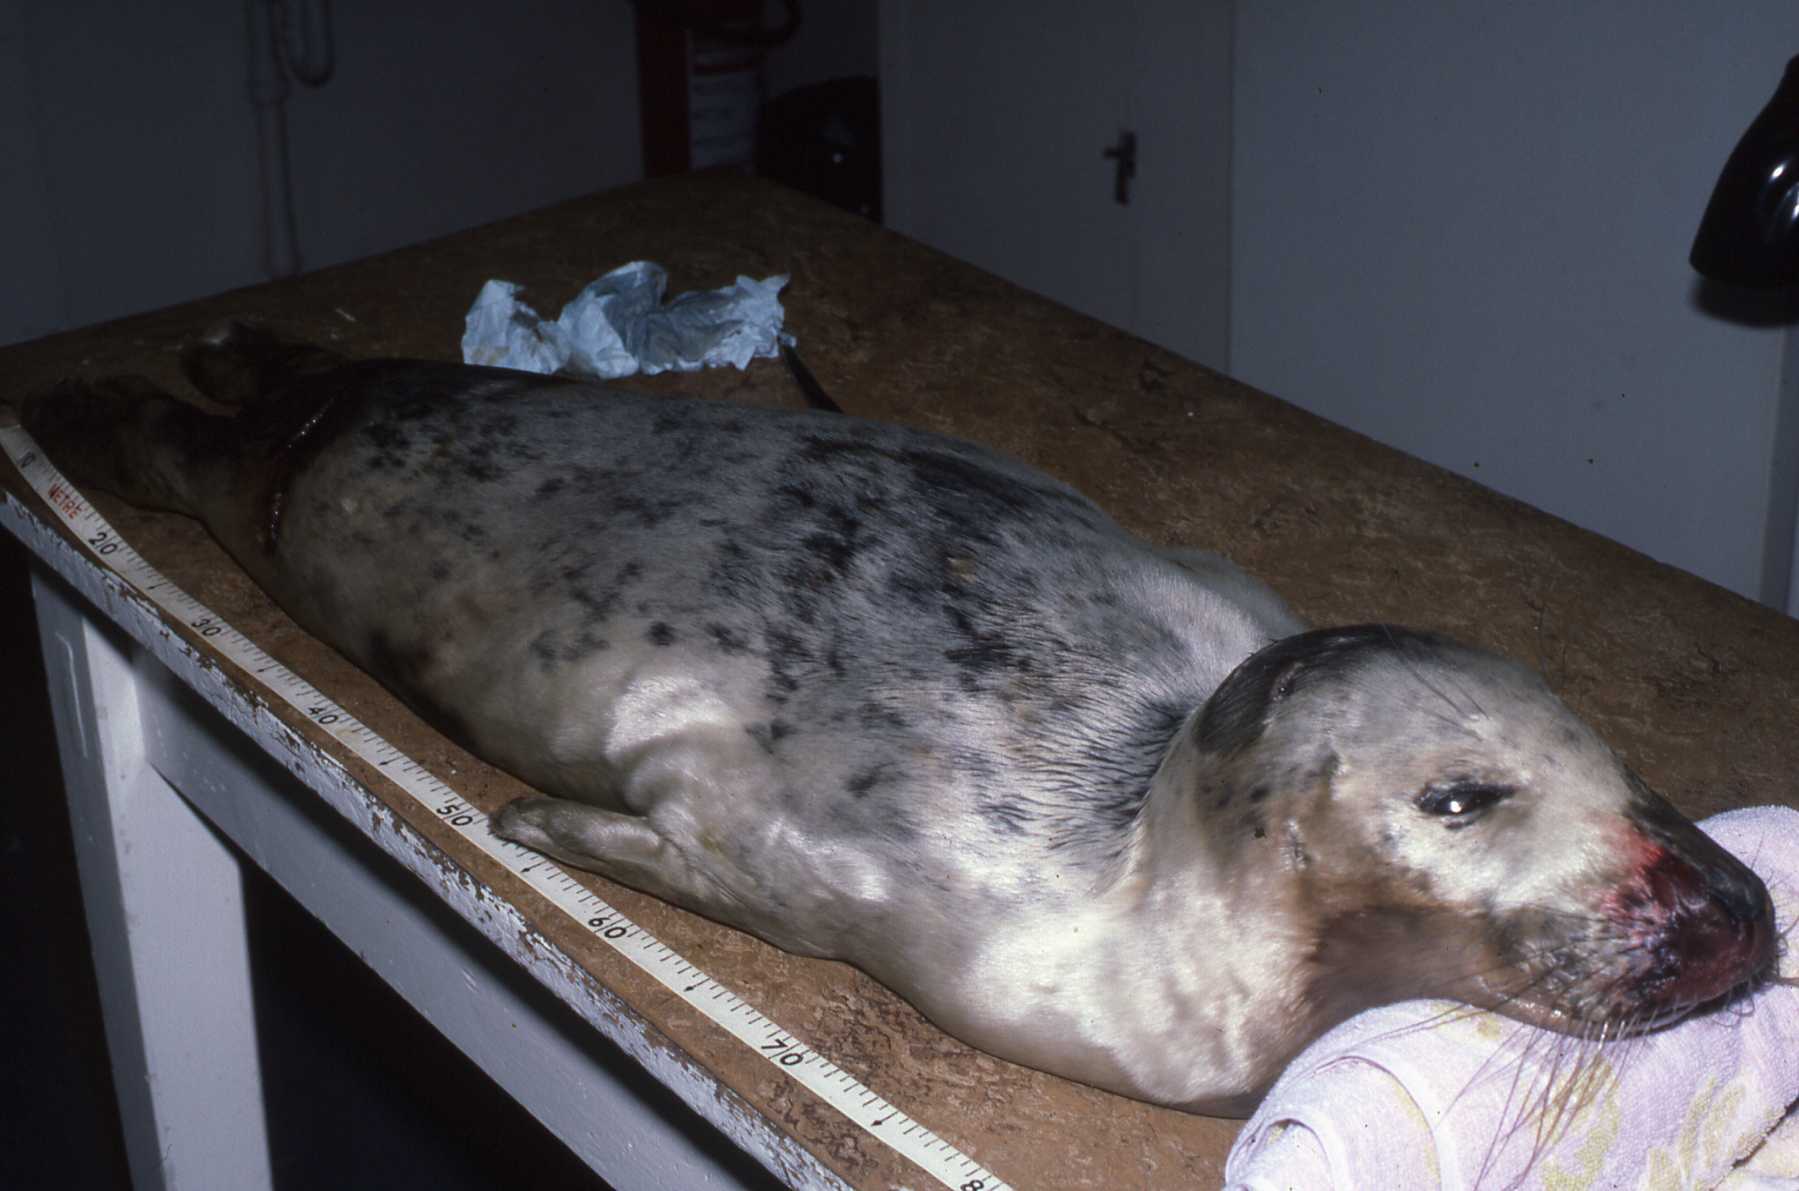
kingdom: Animalia
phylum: Chordata
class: Mammalia
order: Carnivora
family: Phocidae
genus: Halichoerus
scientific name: Halichoerus grypus
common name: Grey seal
